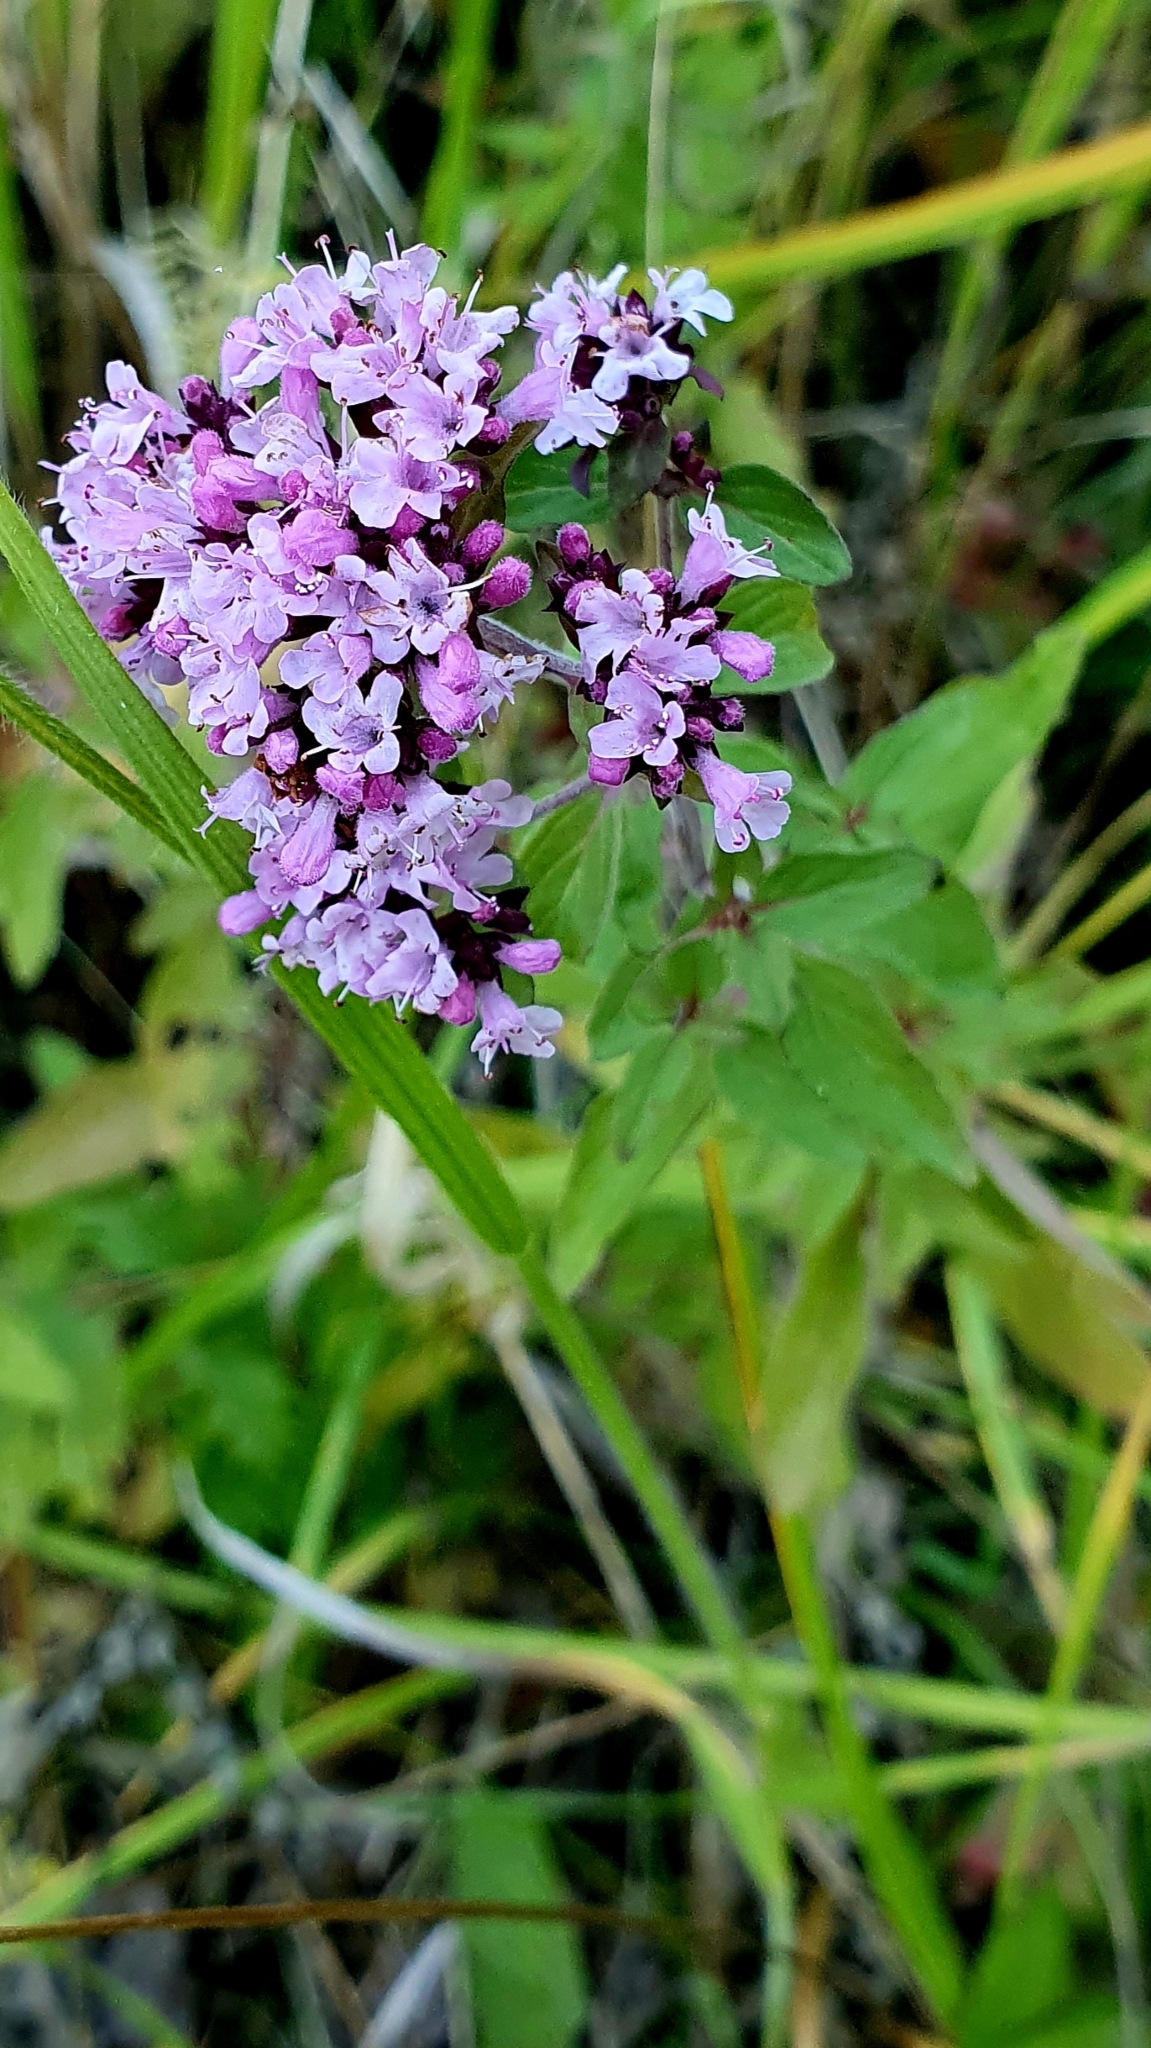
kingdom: Plantae
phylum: Tracheophyta
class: Magnoliopsida
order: Lamiales
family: Lamiaceae
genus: Origanum
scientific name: Origanum vulgare
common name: Wild marjoram
